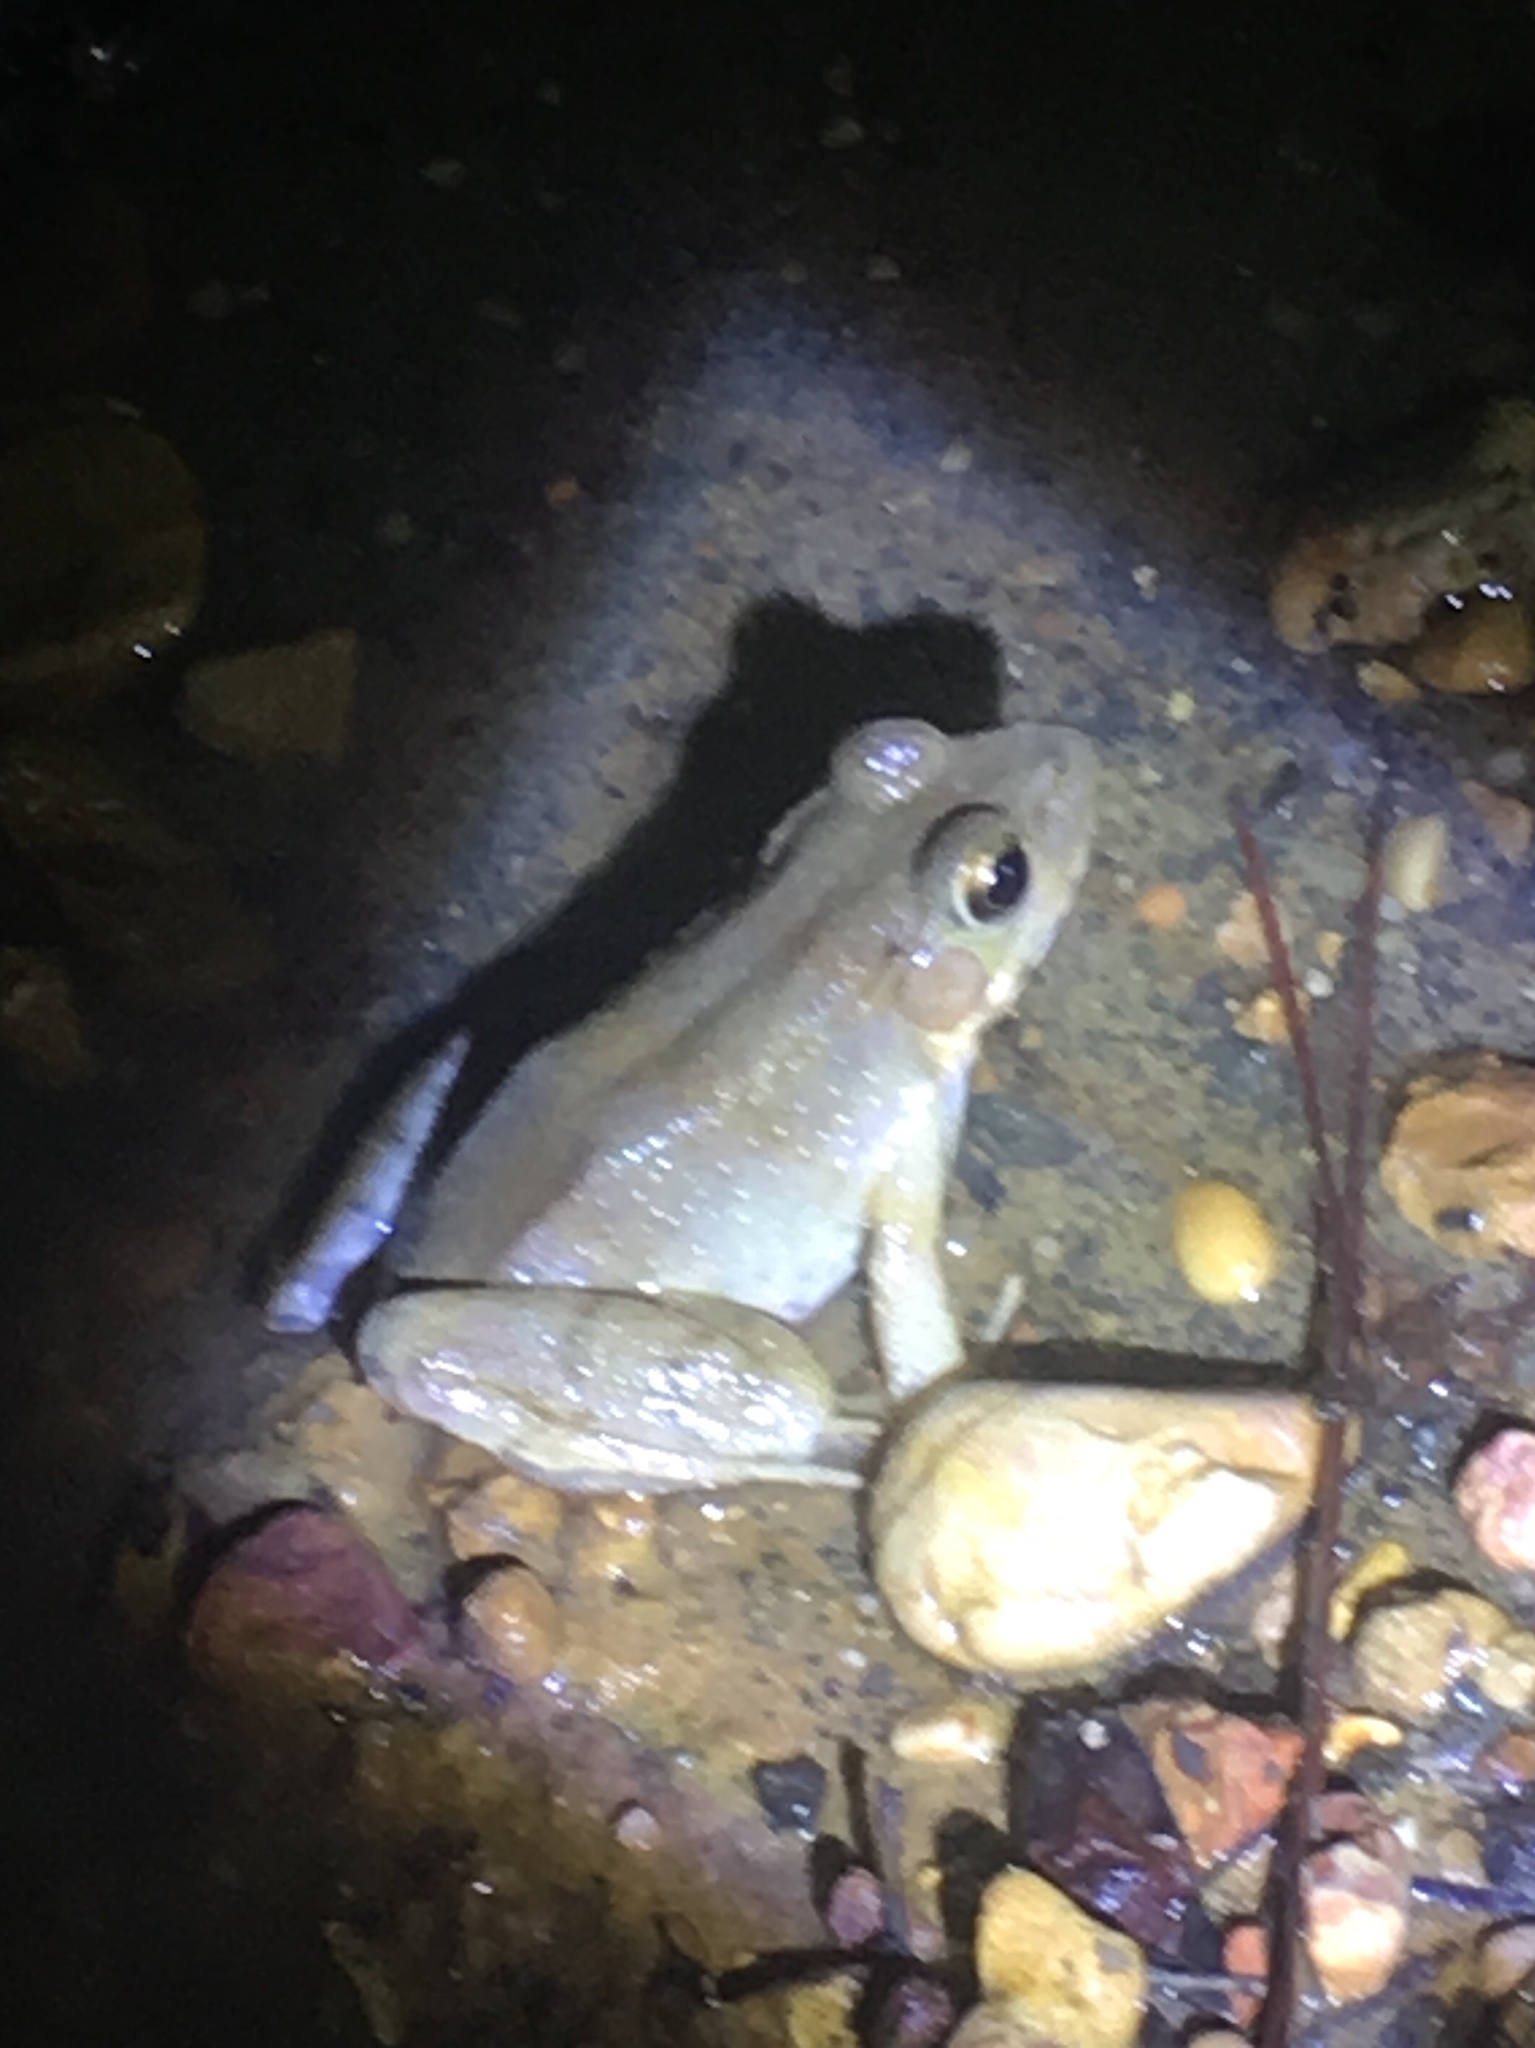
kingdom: Animalia
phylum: Chordata
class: Amphibia
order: Anura
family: Ranidae
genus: Lithobates
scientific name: Lithobates clamitans
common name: Green frog
